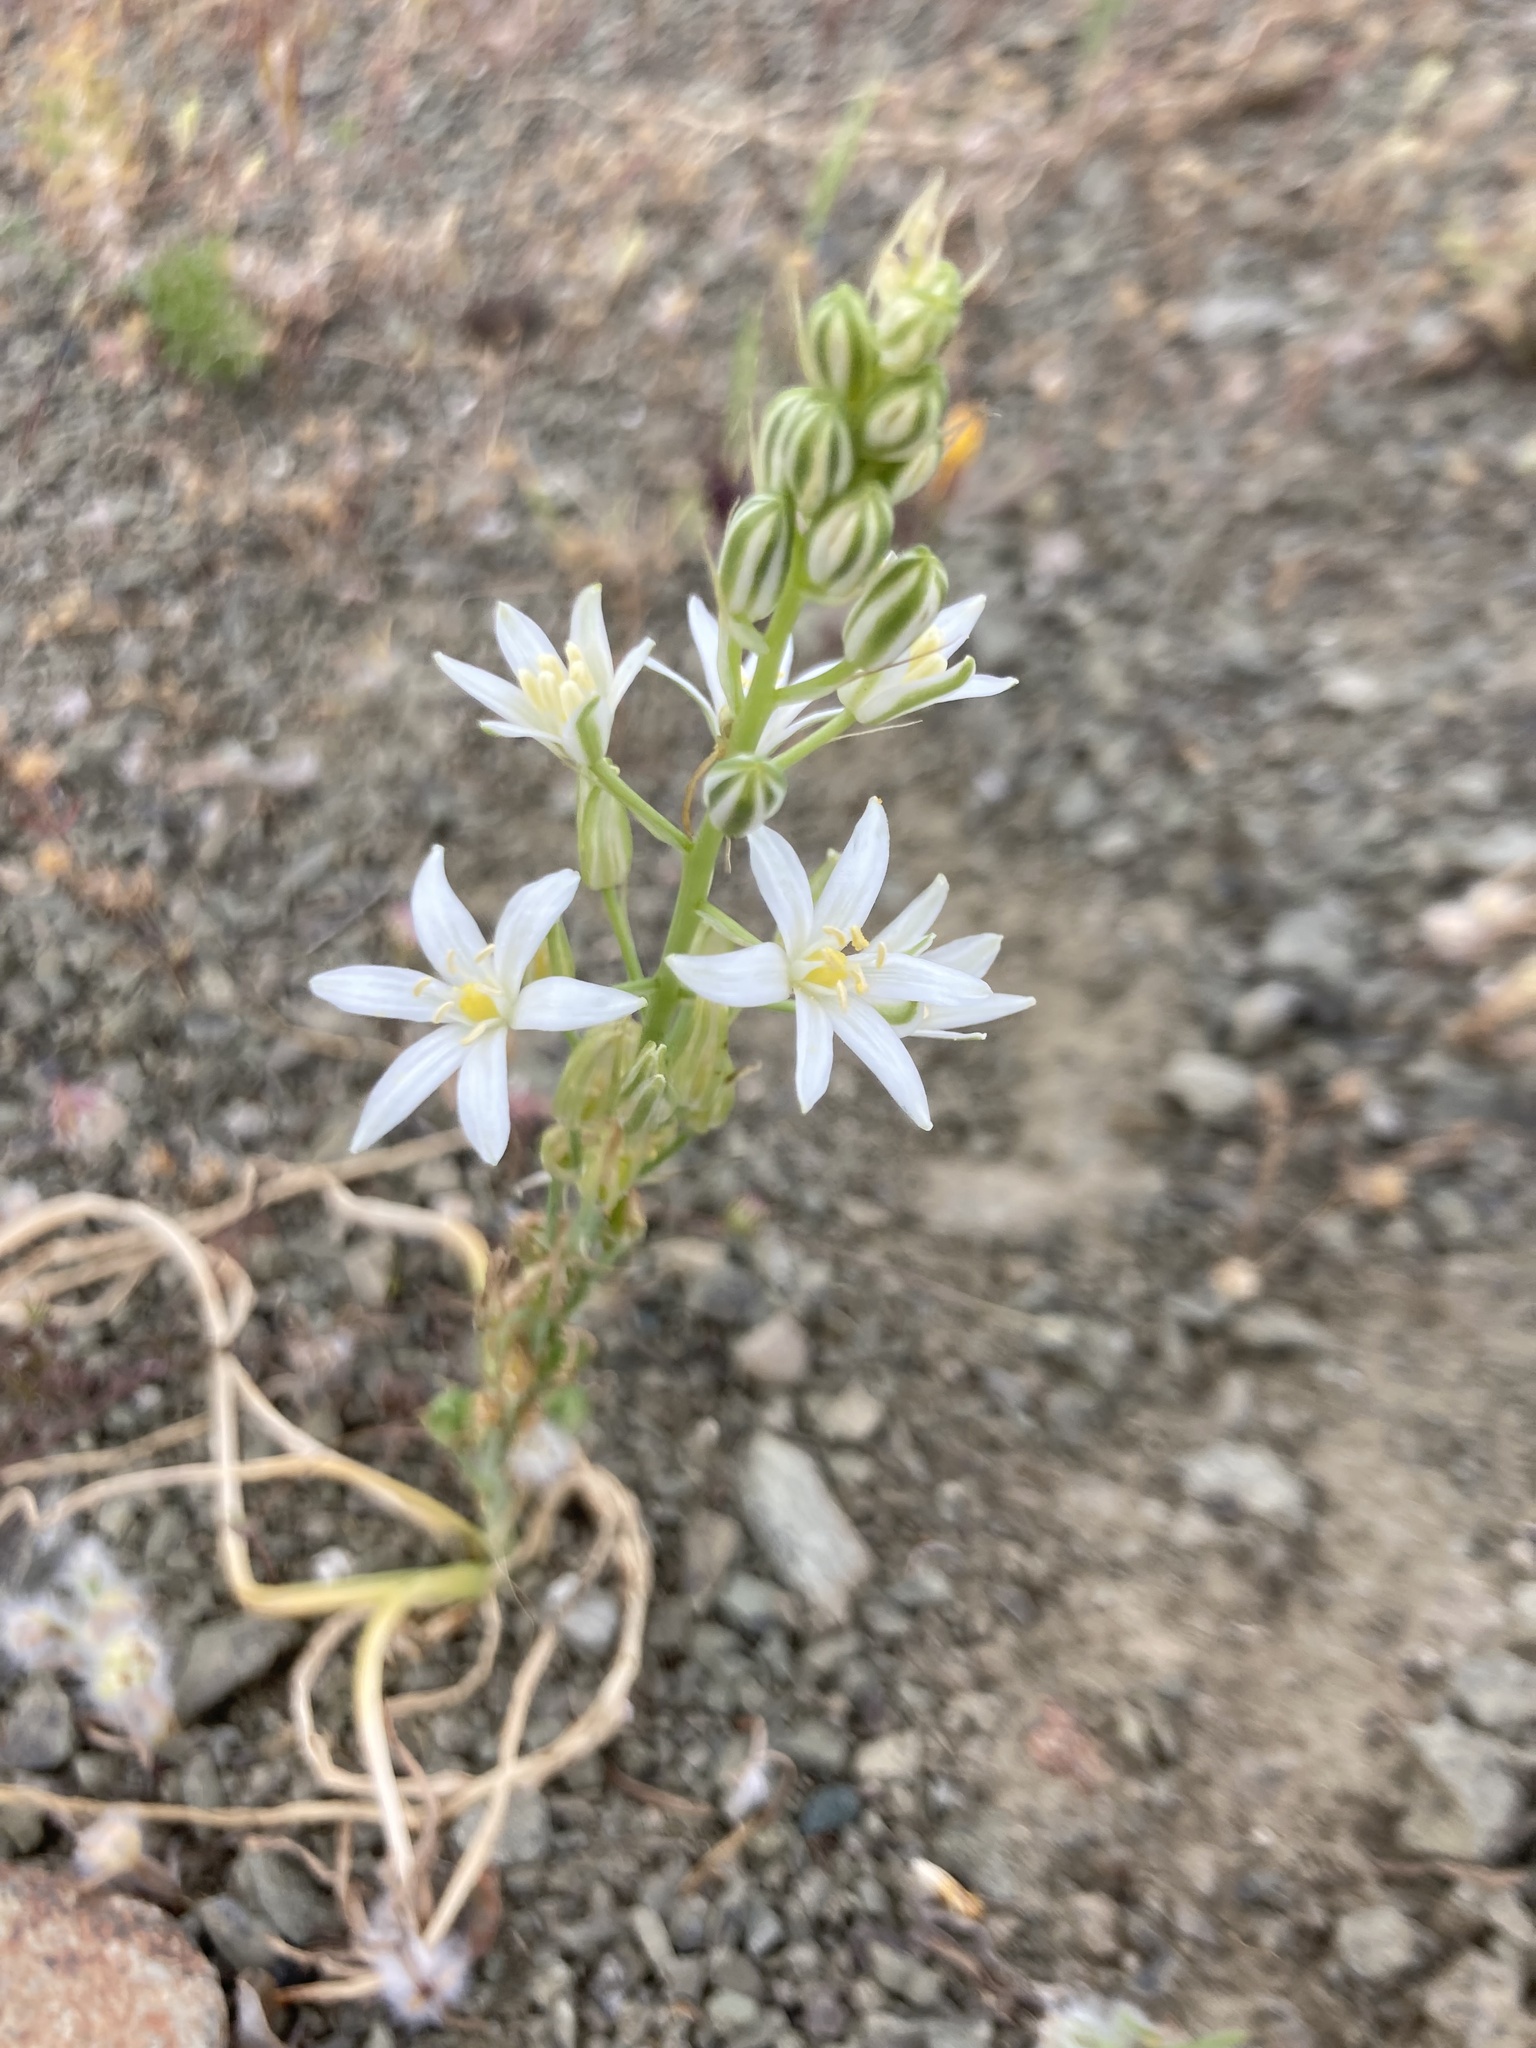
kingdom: Plantae
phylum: Tracheophyta
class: Liliopsida
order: Asparagales
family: Asparagaceae
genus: Ornithogalum
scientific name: Ornithogalum narbonense
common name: Bath-asparagus
